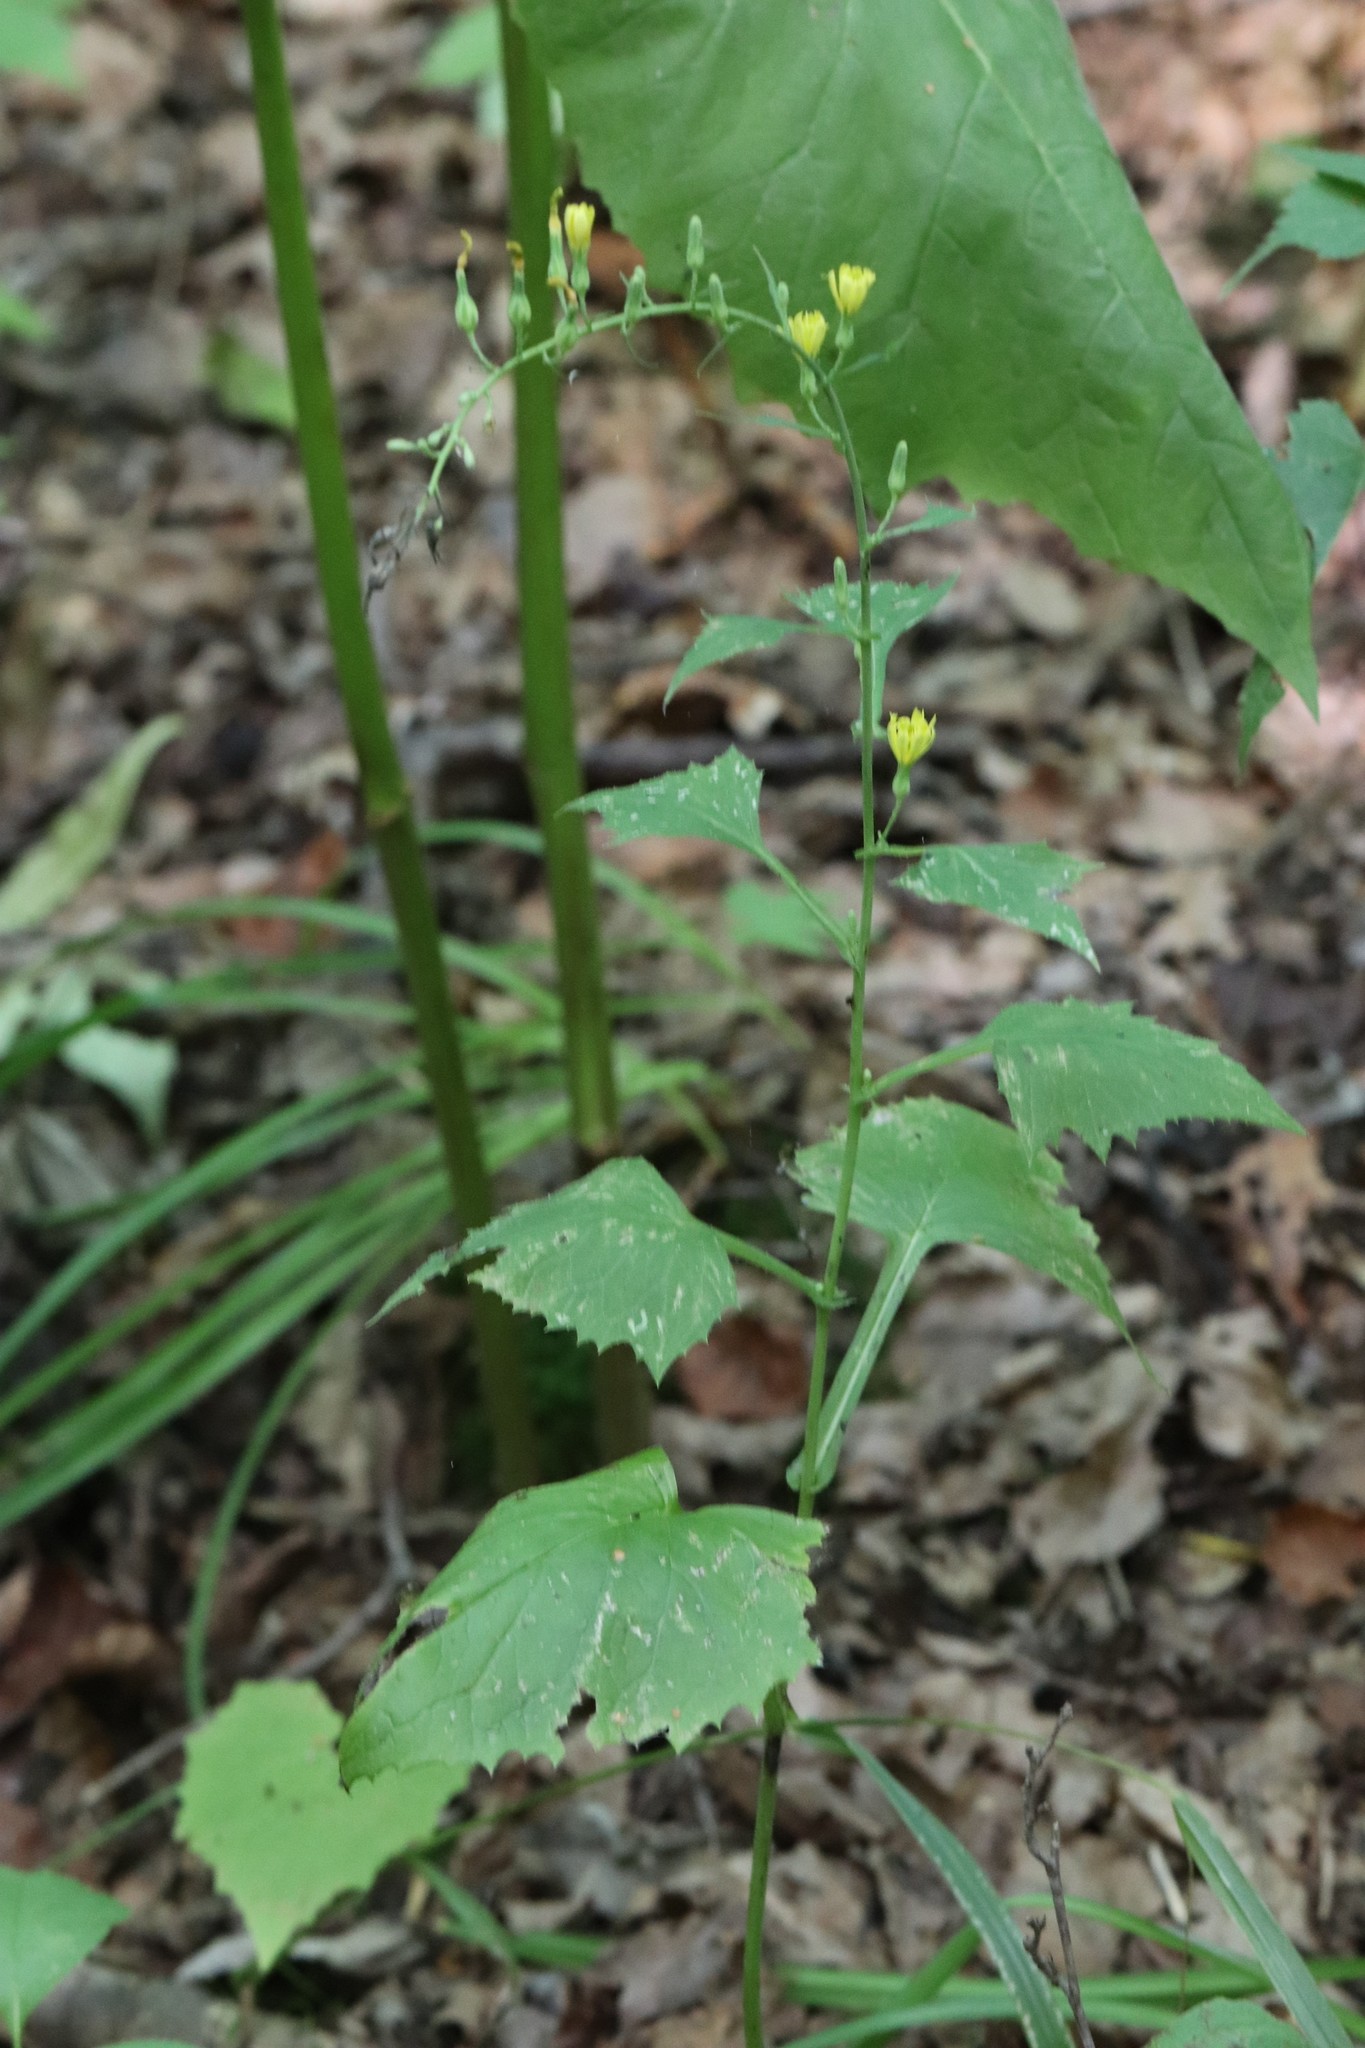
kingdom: Plantae
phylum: Tracheophyta
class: Magnoliopsida
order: Asterales
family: Asteraceae
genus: Lactuca
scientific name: Lactuca triangulata
